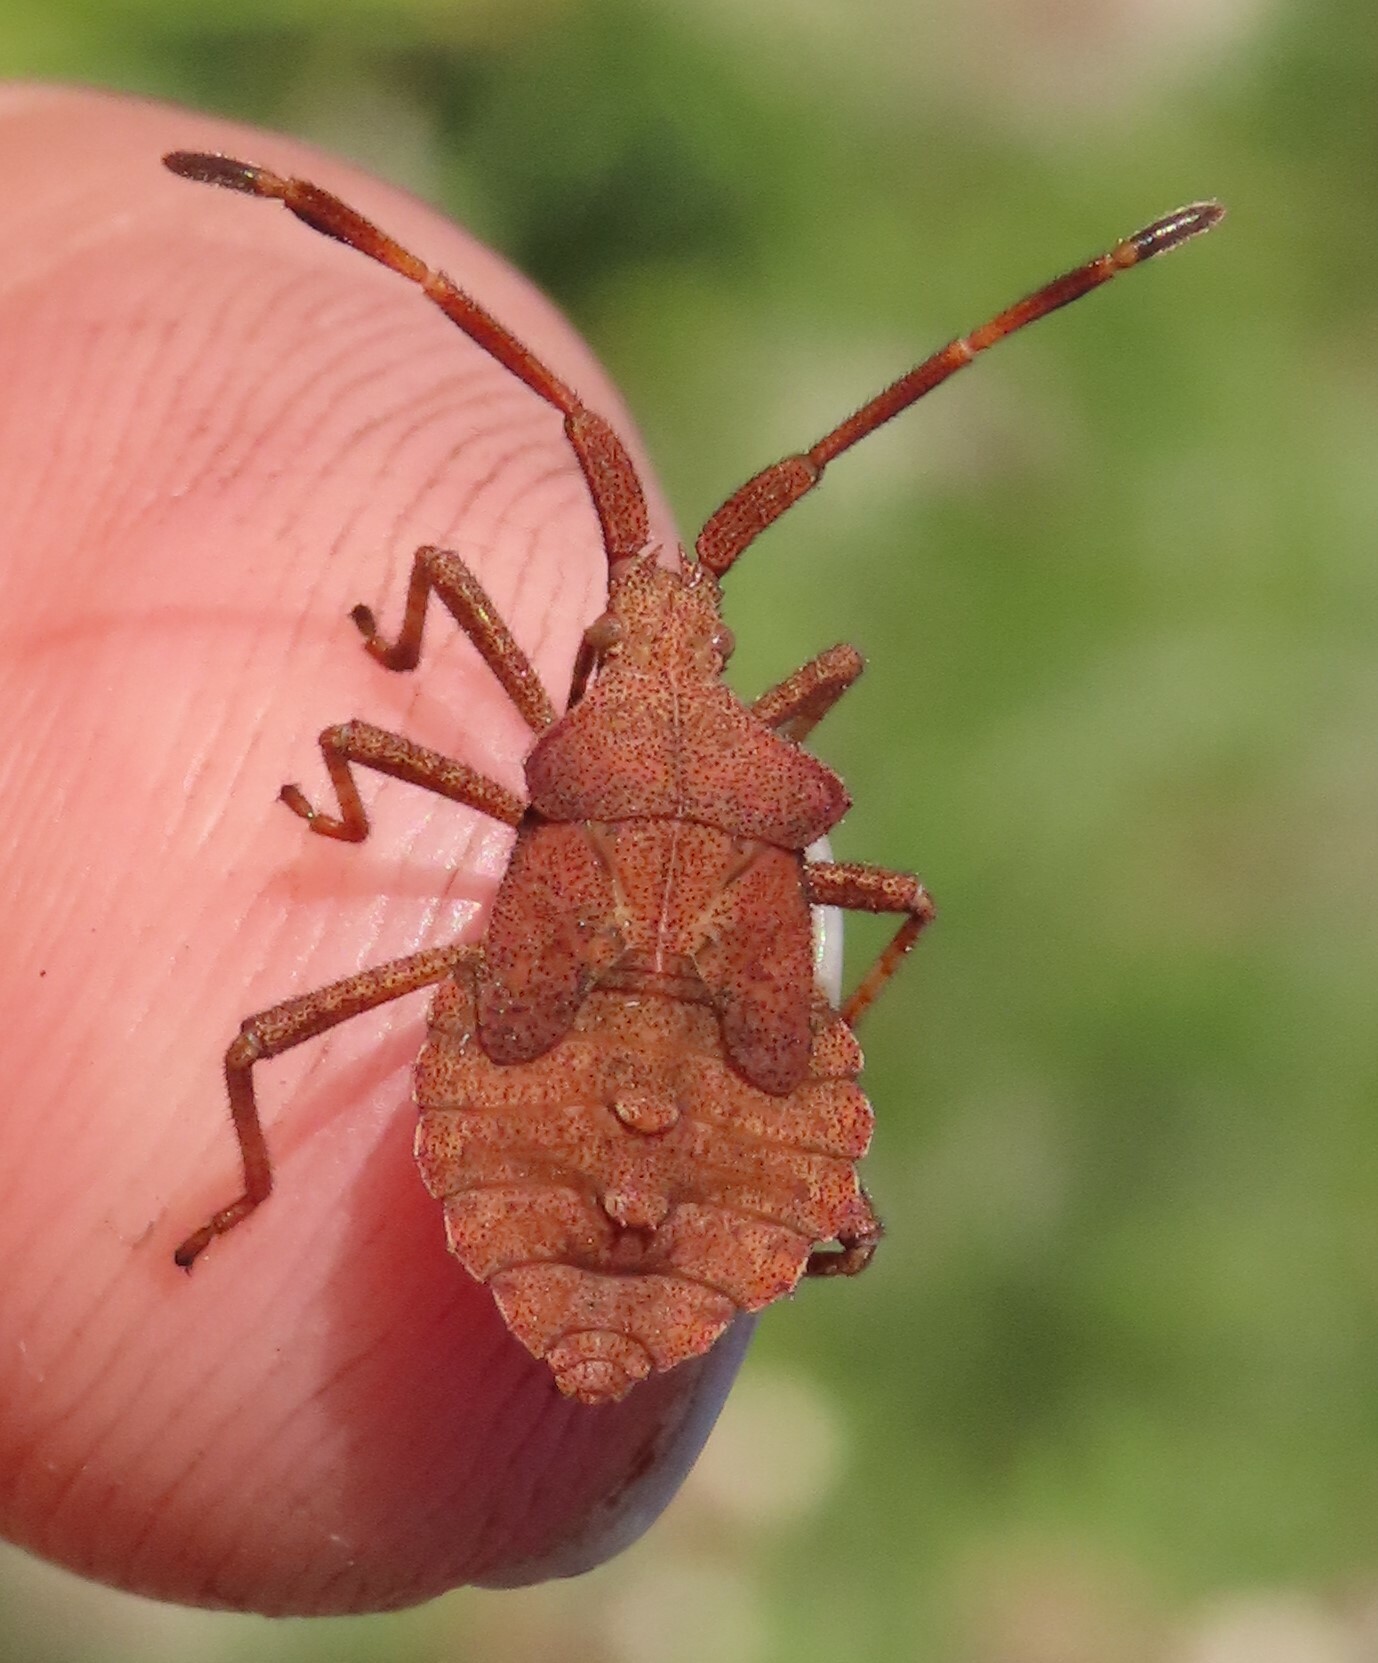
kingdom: Animalia
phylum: Arthropoda
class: Insecta
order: Hemiptera
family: Coreidae
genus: Coreus
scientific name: Coreus marginatus
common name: Dock bug
